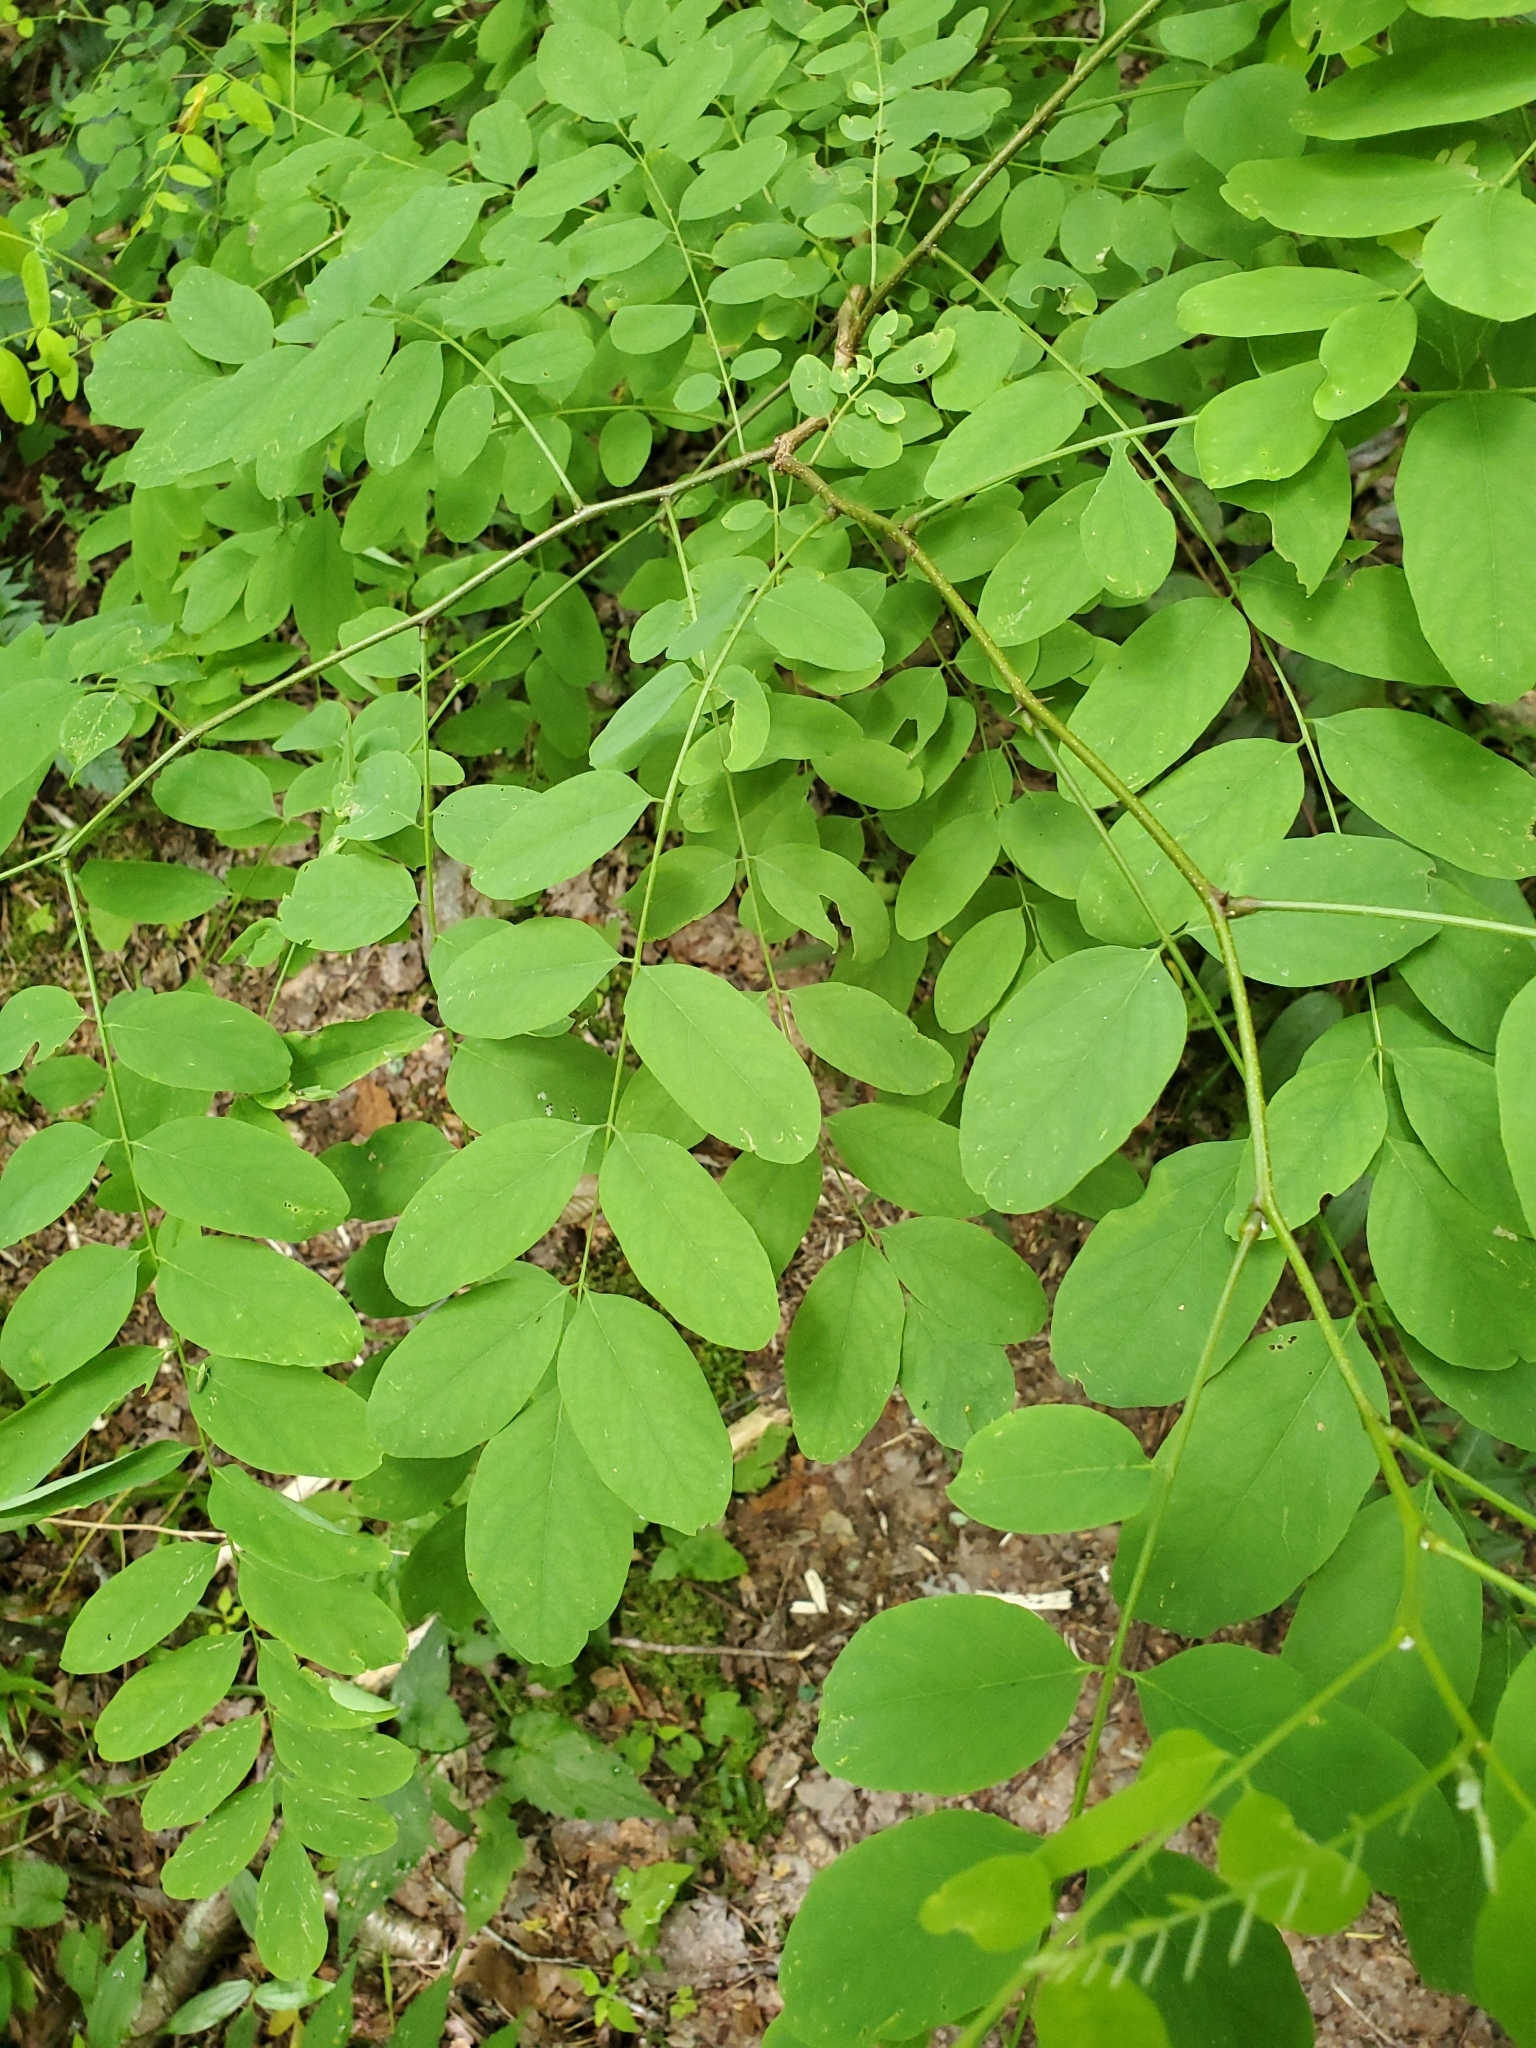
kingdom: Plantae
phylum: Tracheophyta
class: Magnoliopsida
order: Fabales
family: Fabaceae
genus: Robinia
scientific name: Robinia pseudoacacia
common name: Black locust
